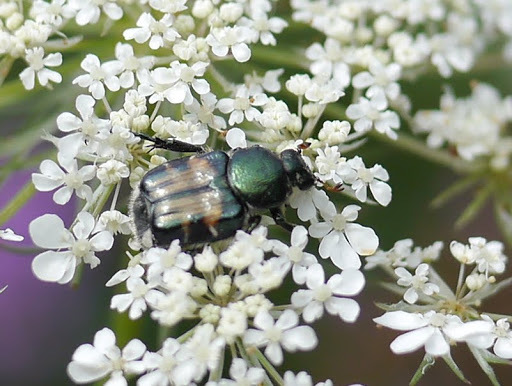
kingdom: Animalia
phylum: Arthropoda
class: Insecta
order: Coleoptera
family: Scarabaeidae
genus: Trichiotinus
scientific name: Trichiotinus affinis
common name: Hairy flower scarab
